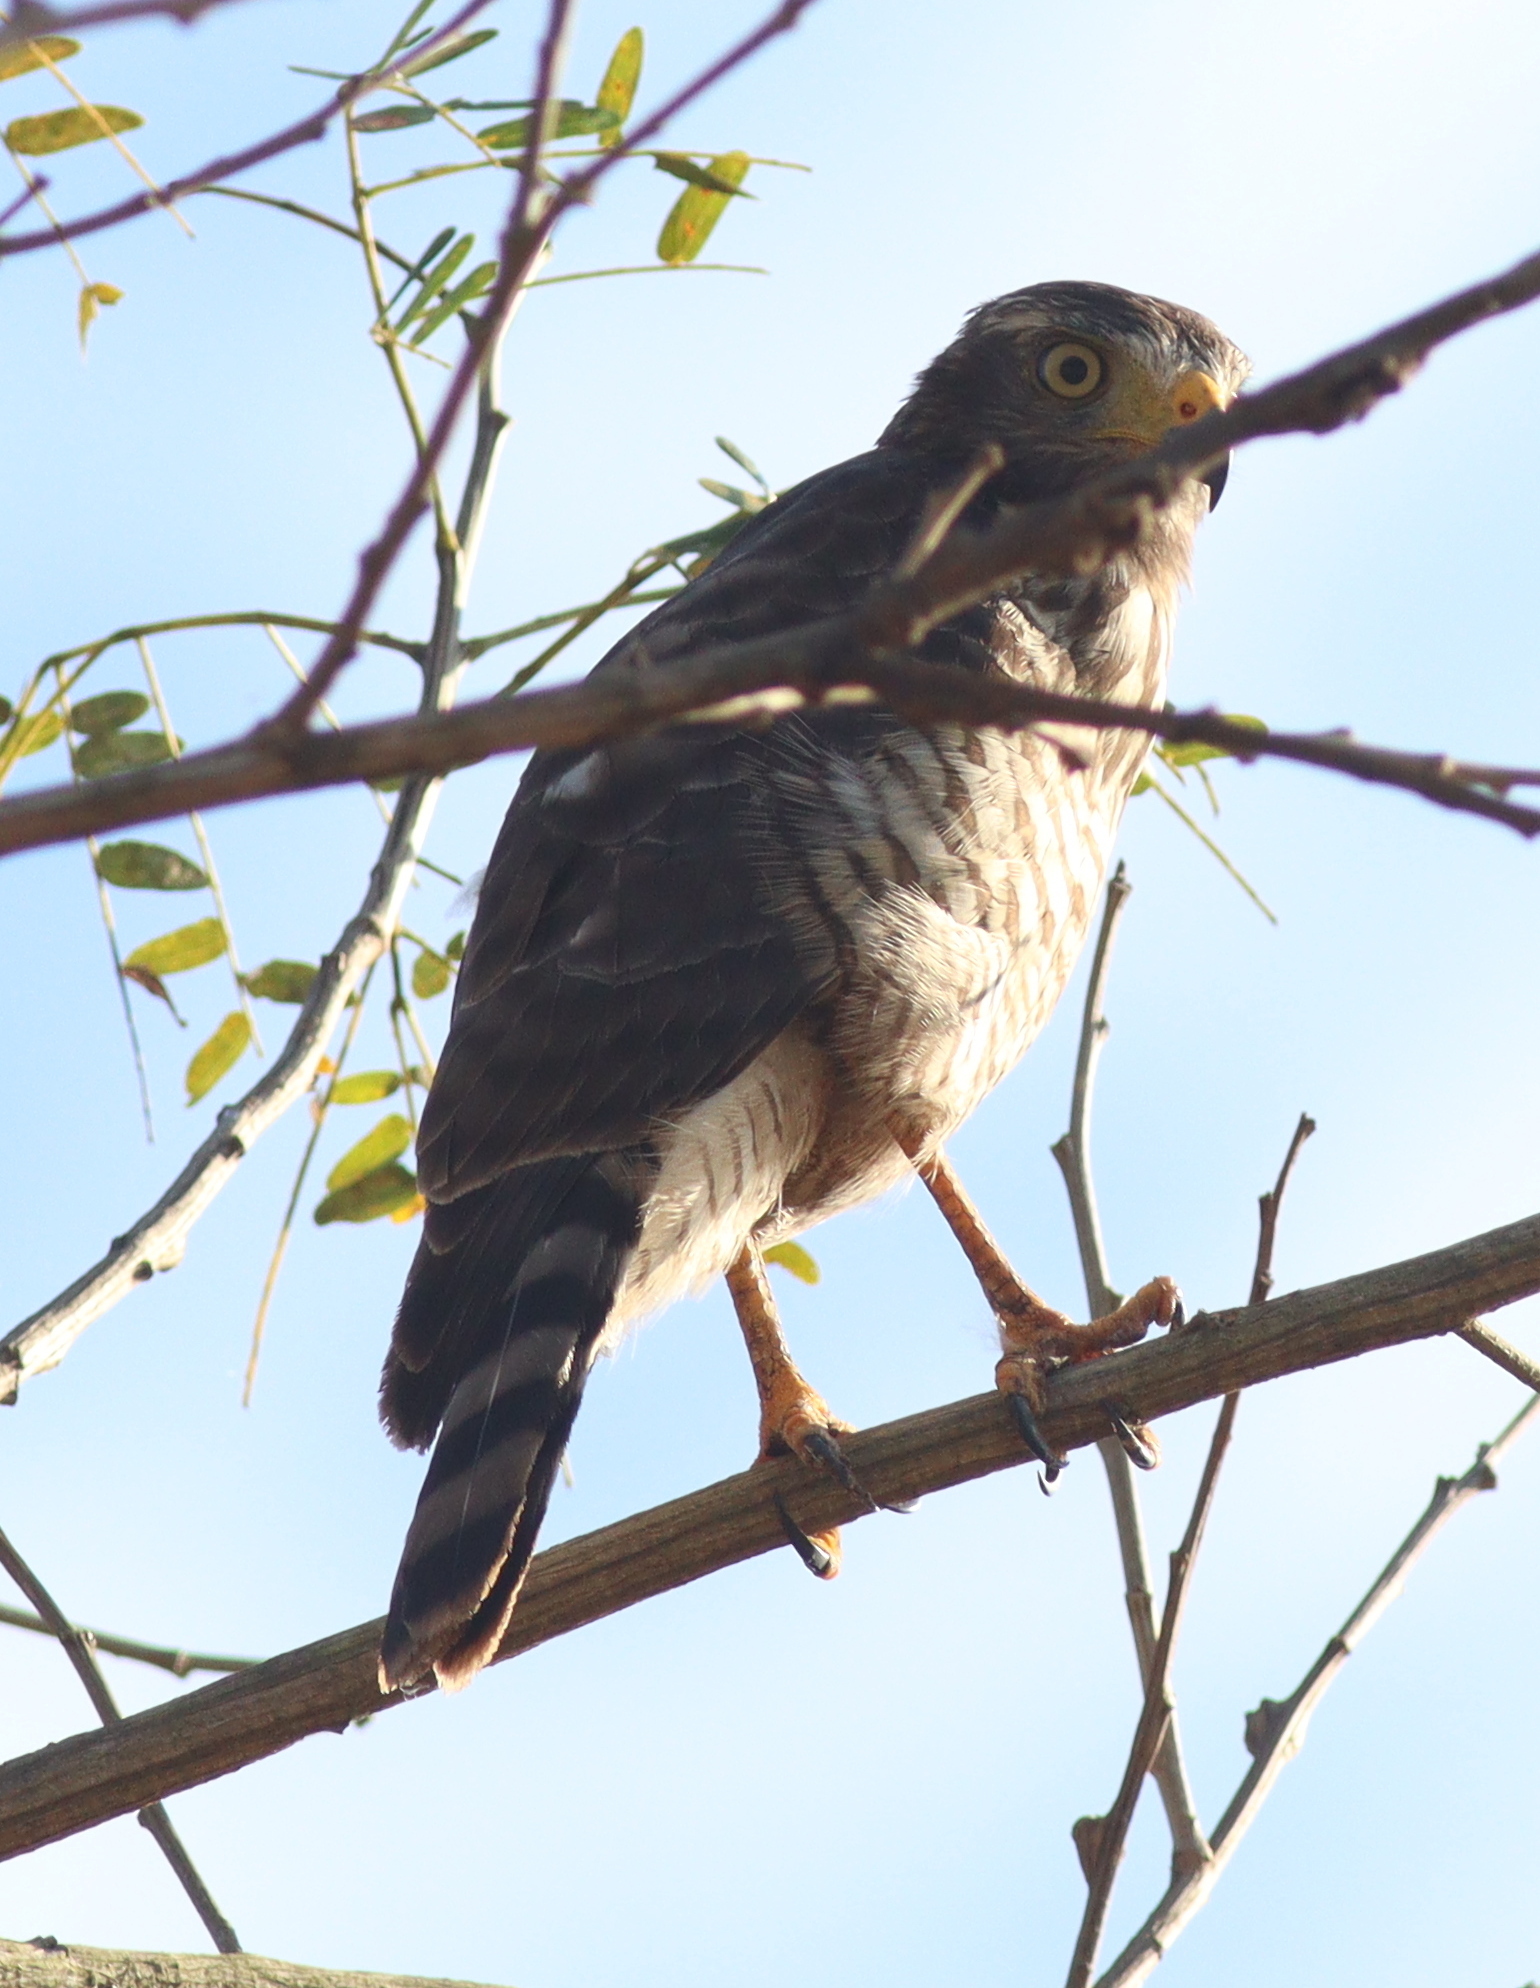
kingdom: Animalia
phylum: Chordata
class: Aves
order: Accipitriformes
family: Accipitridae
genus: Rupornis
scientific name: Rupornis magnirostris
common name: Roadside hawk
